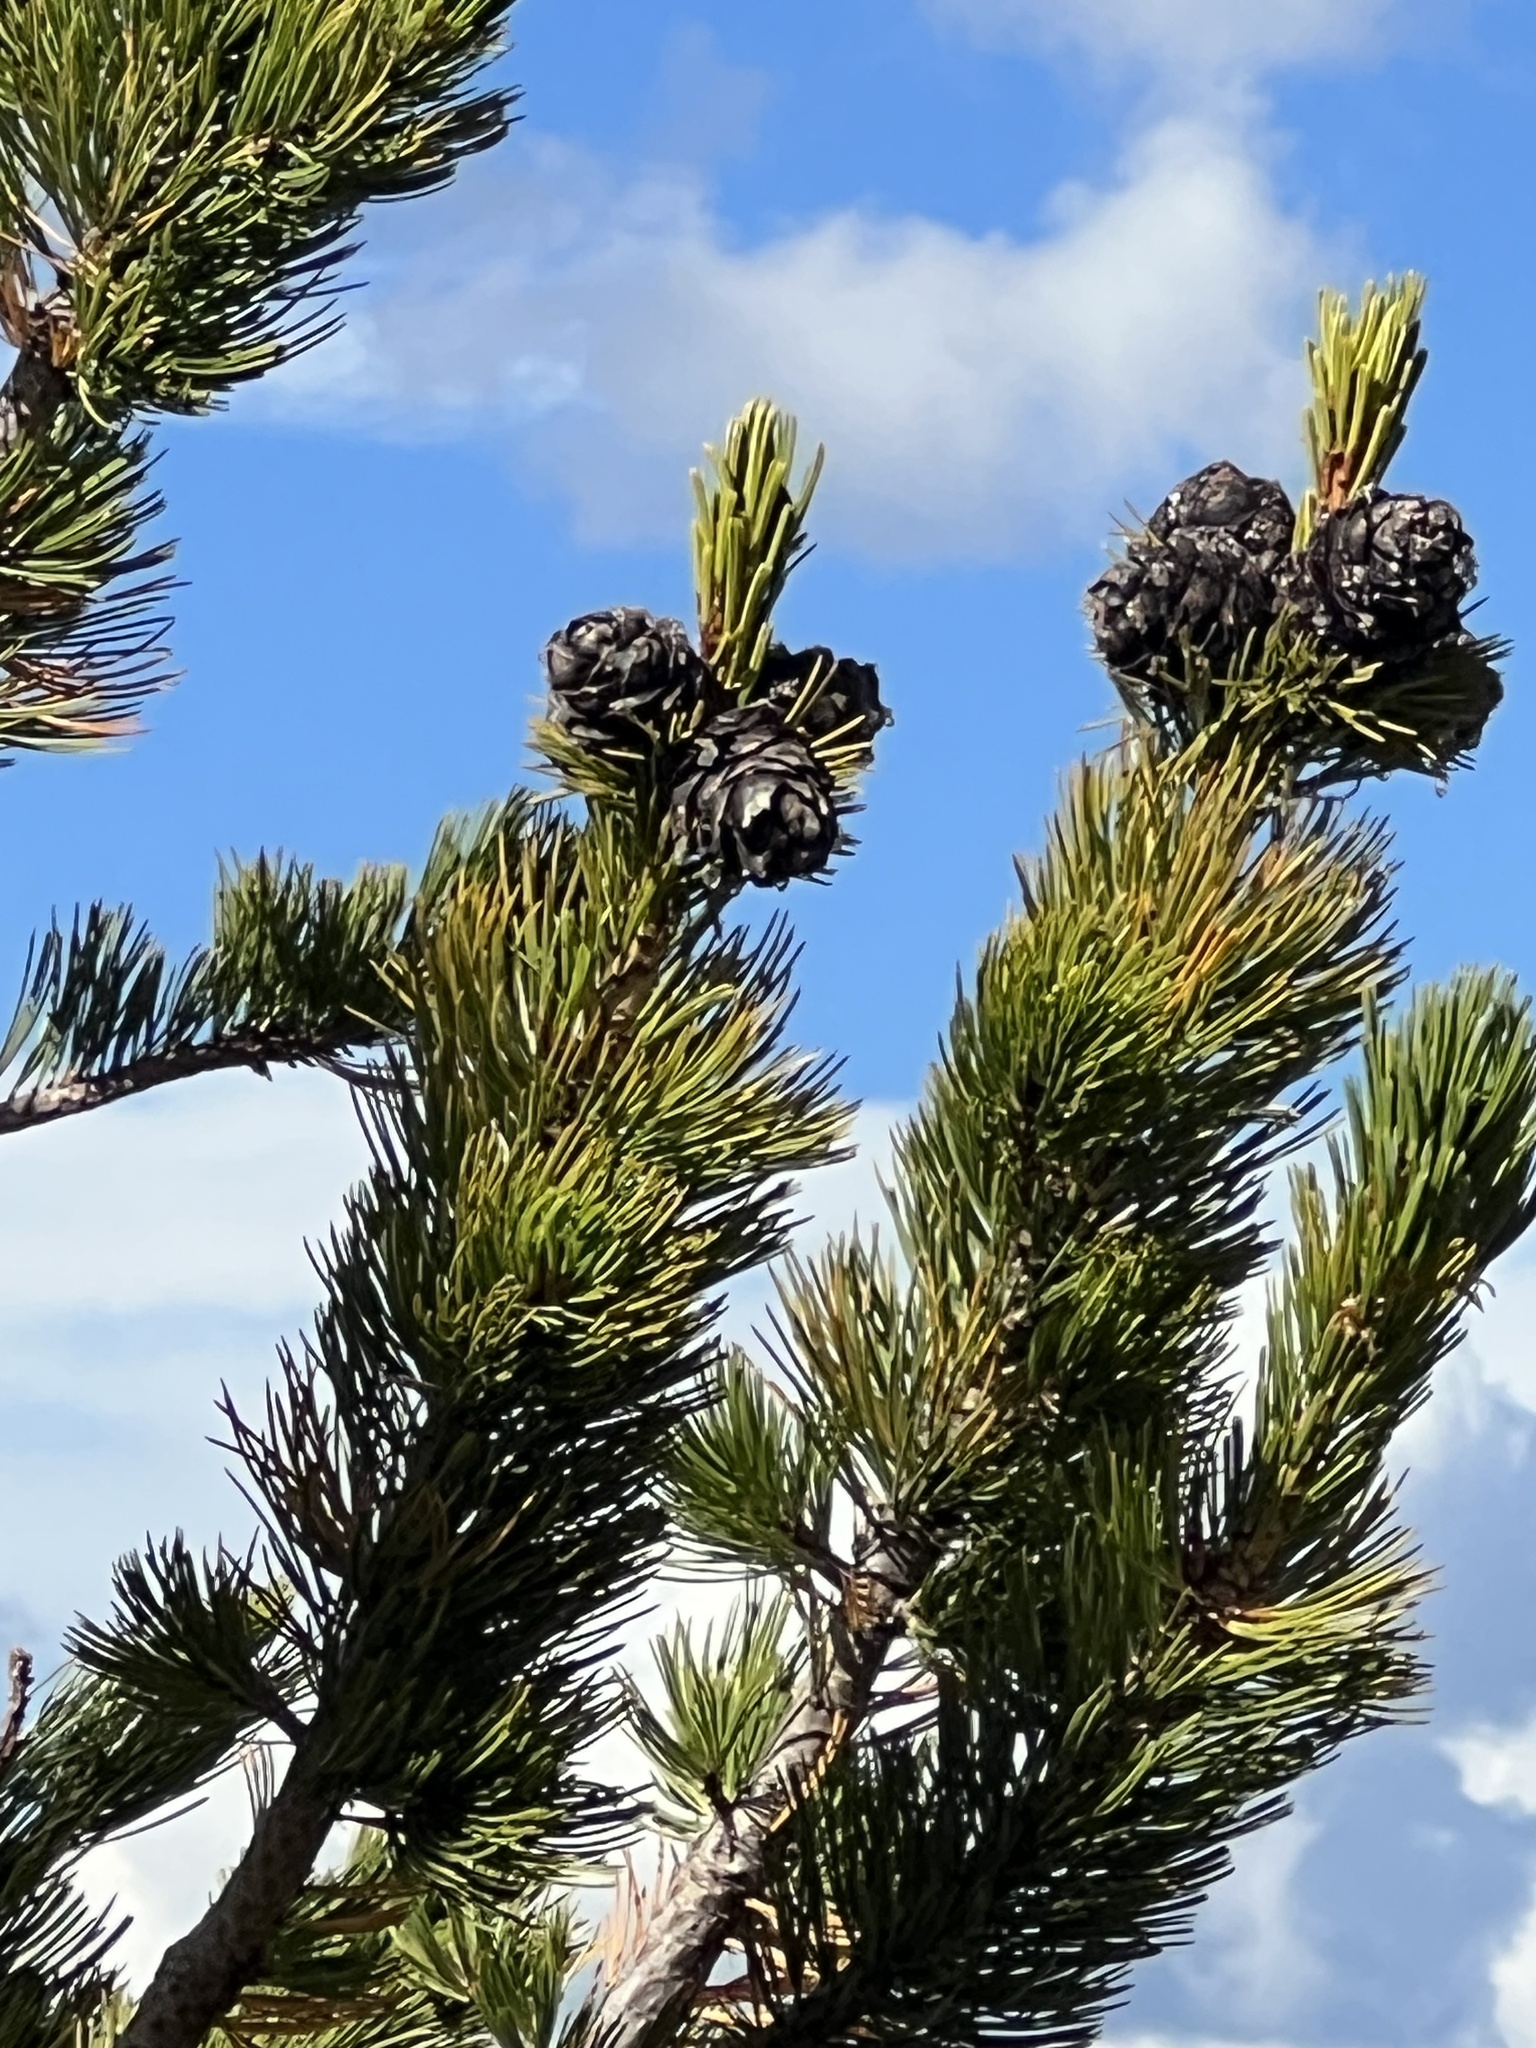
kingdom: Plantae
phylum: Tracheophyta
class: Pinopsida
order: Pinales
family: Pinaceae
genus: Pinus
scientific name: Pinus albicaulis
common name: Whitebark pine
